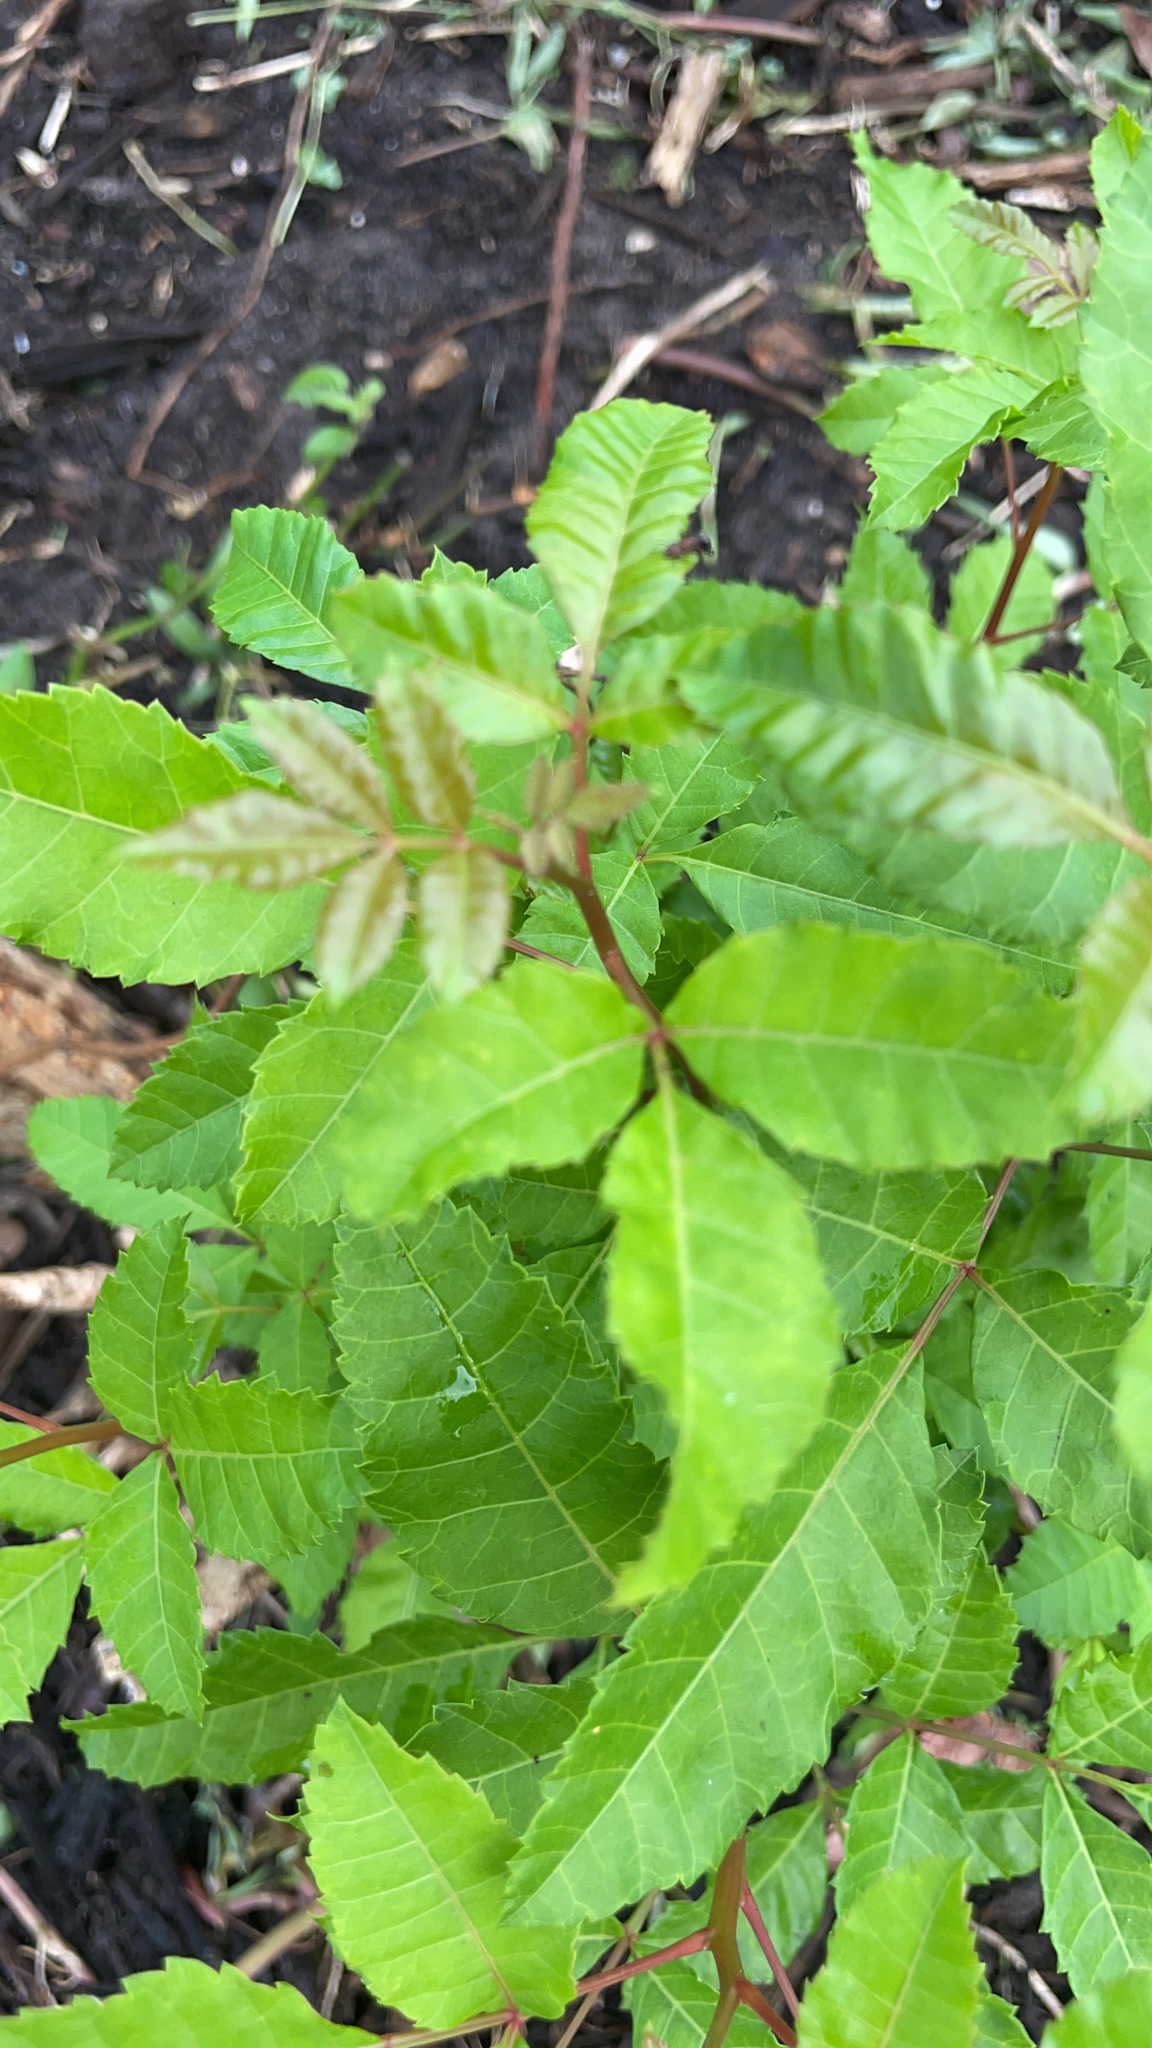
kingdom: Plantae
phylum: Tracheophyta
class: Magnoliopsida
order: Sapindales
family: Anacardiaceae
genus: Schinus
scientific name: Schinus terebinthifolia
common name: Brazilian peppertree
